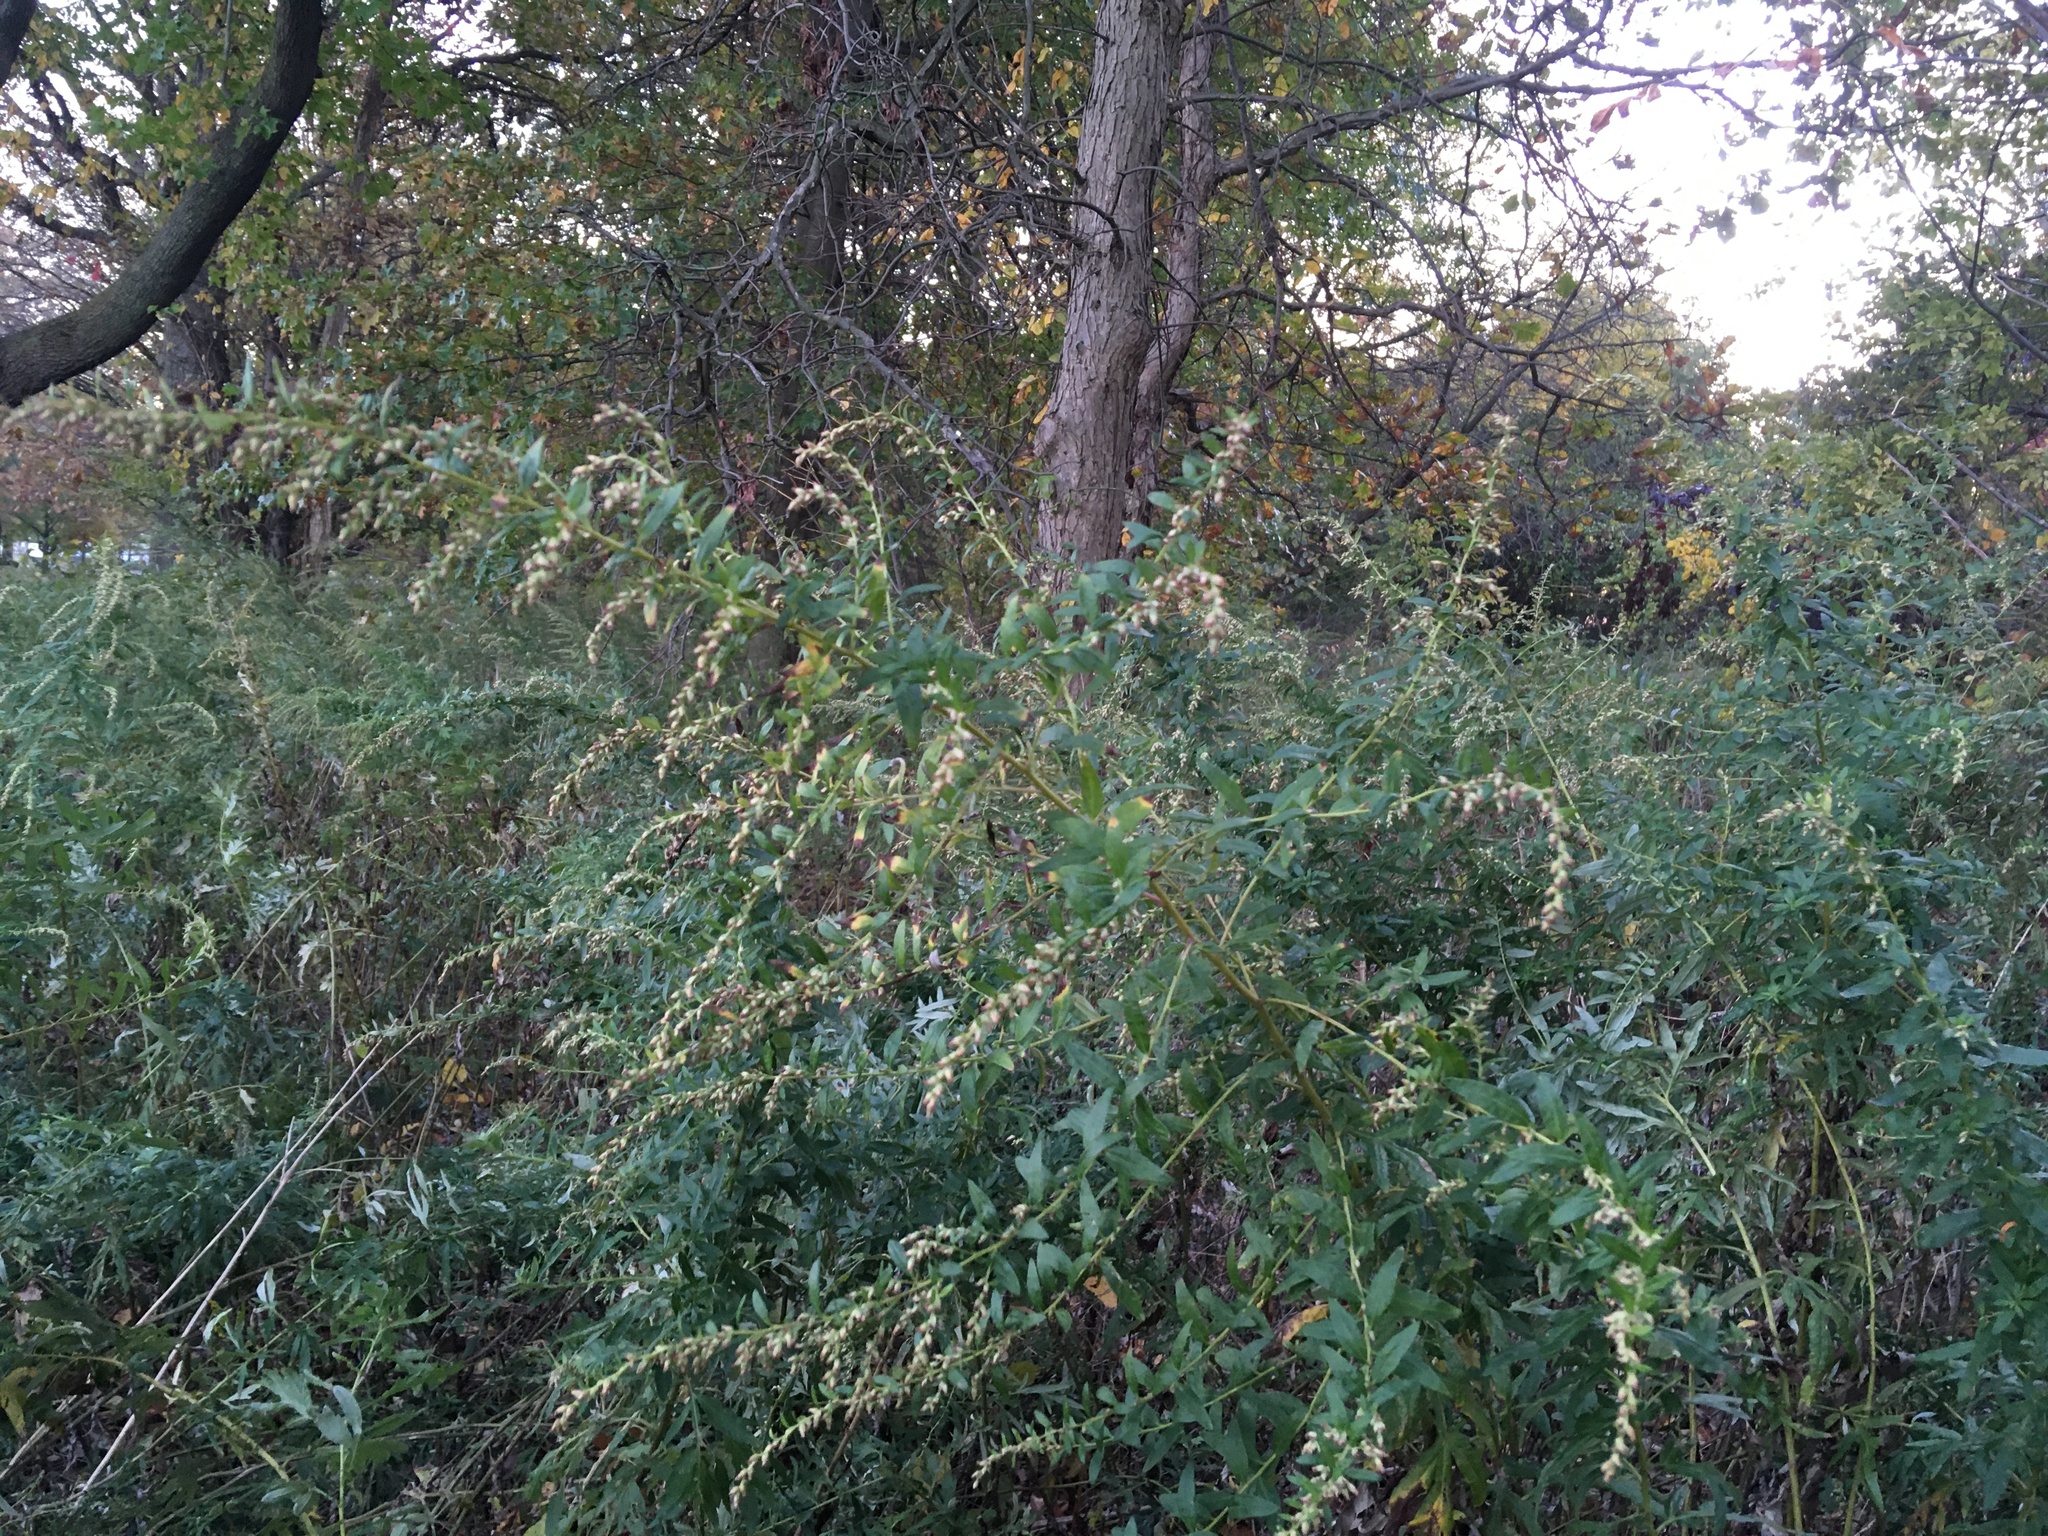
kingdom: Plantae
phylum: Tracheophyta
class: Magnoliopsida
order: Asterales
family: Asteraceae
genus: Artemisia
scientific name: Artemisia vulgaris
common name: Mugwort
